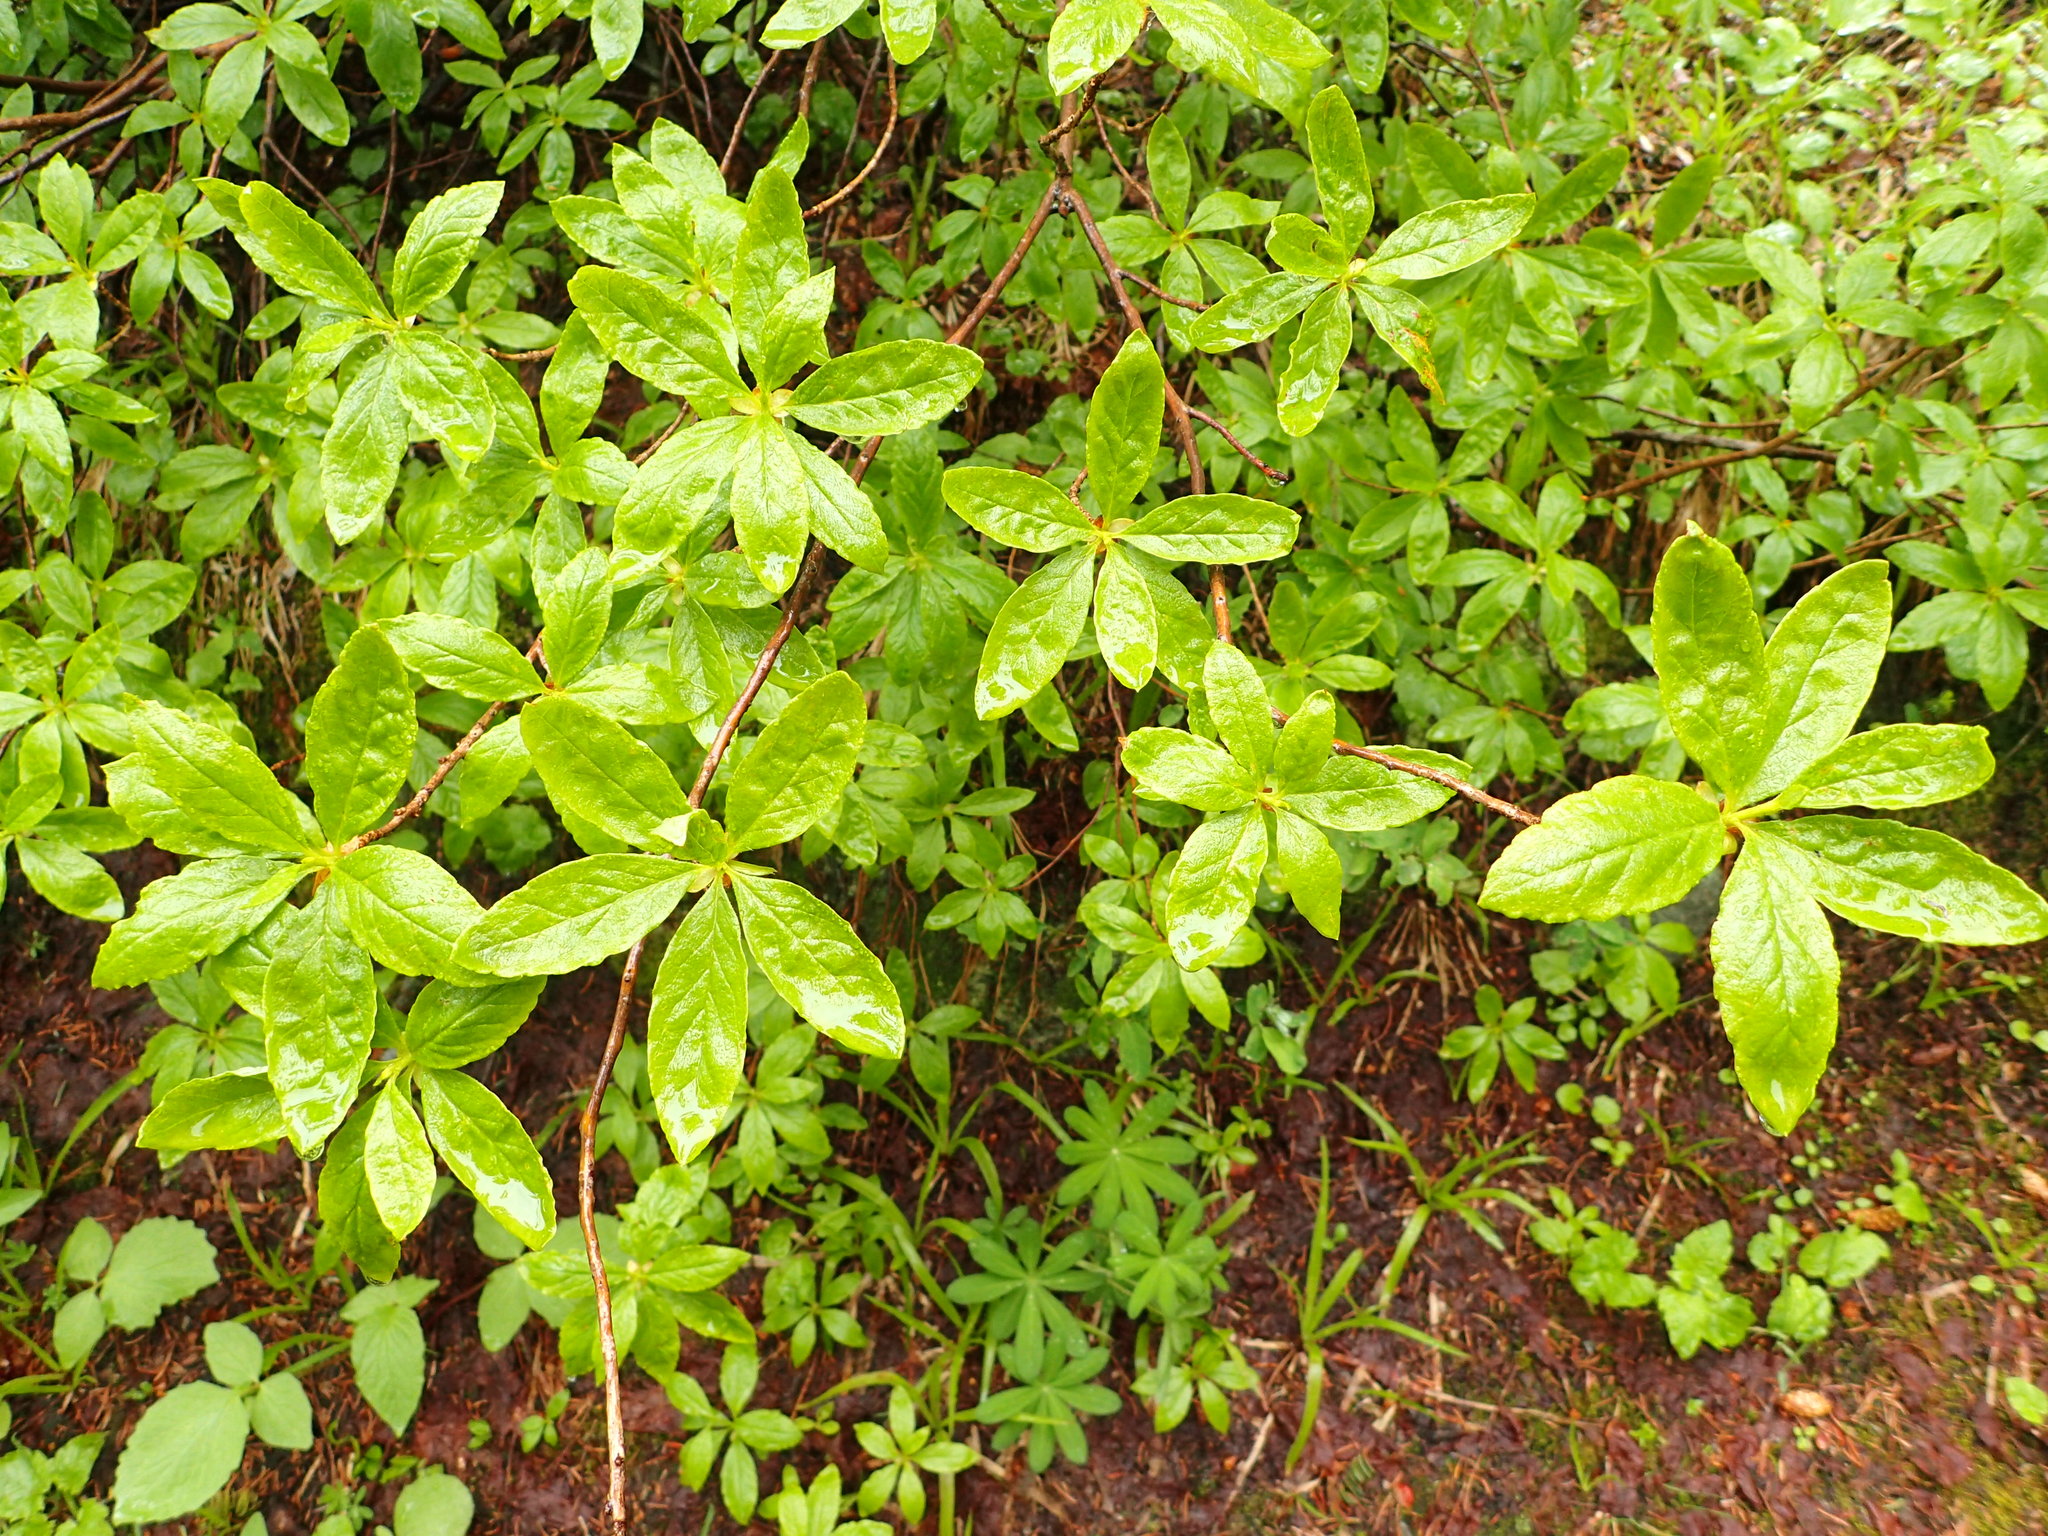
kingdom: Plantae
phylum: Tracheophyta
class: Magnoliopsida
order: Ericales
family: Ericaceae
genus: Rhododendron
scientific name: Rhododendron albiflorum
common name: White rhododendron
